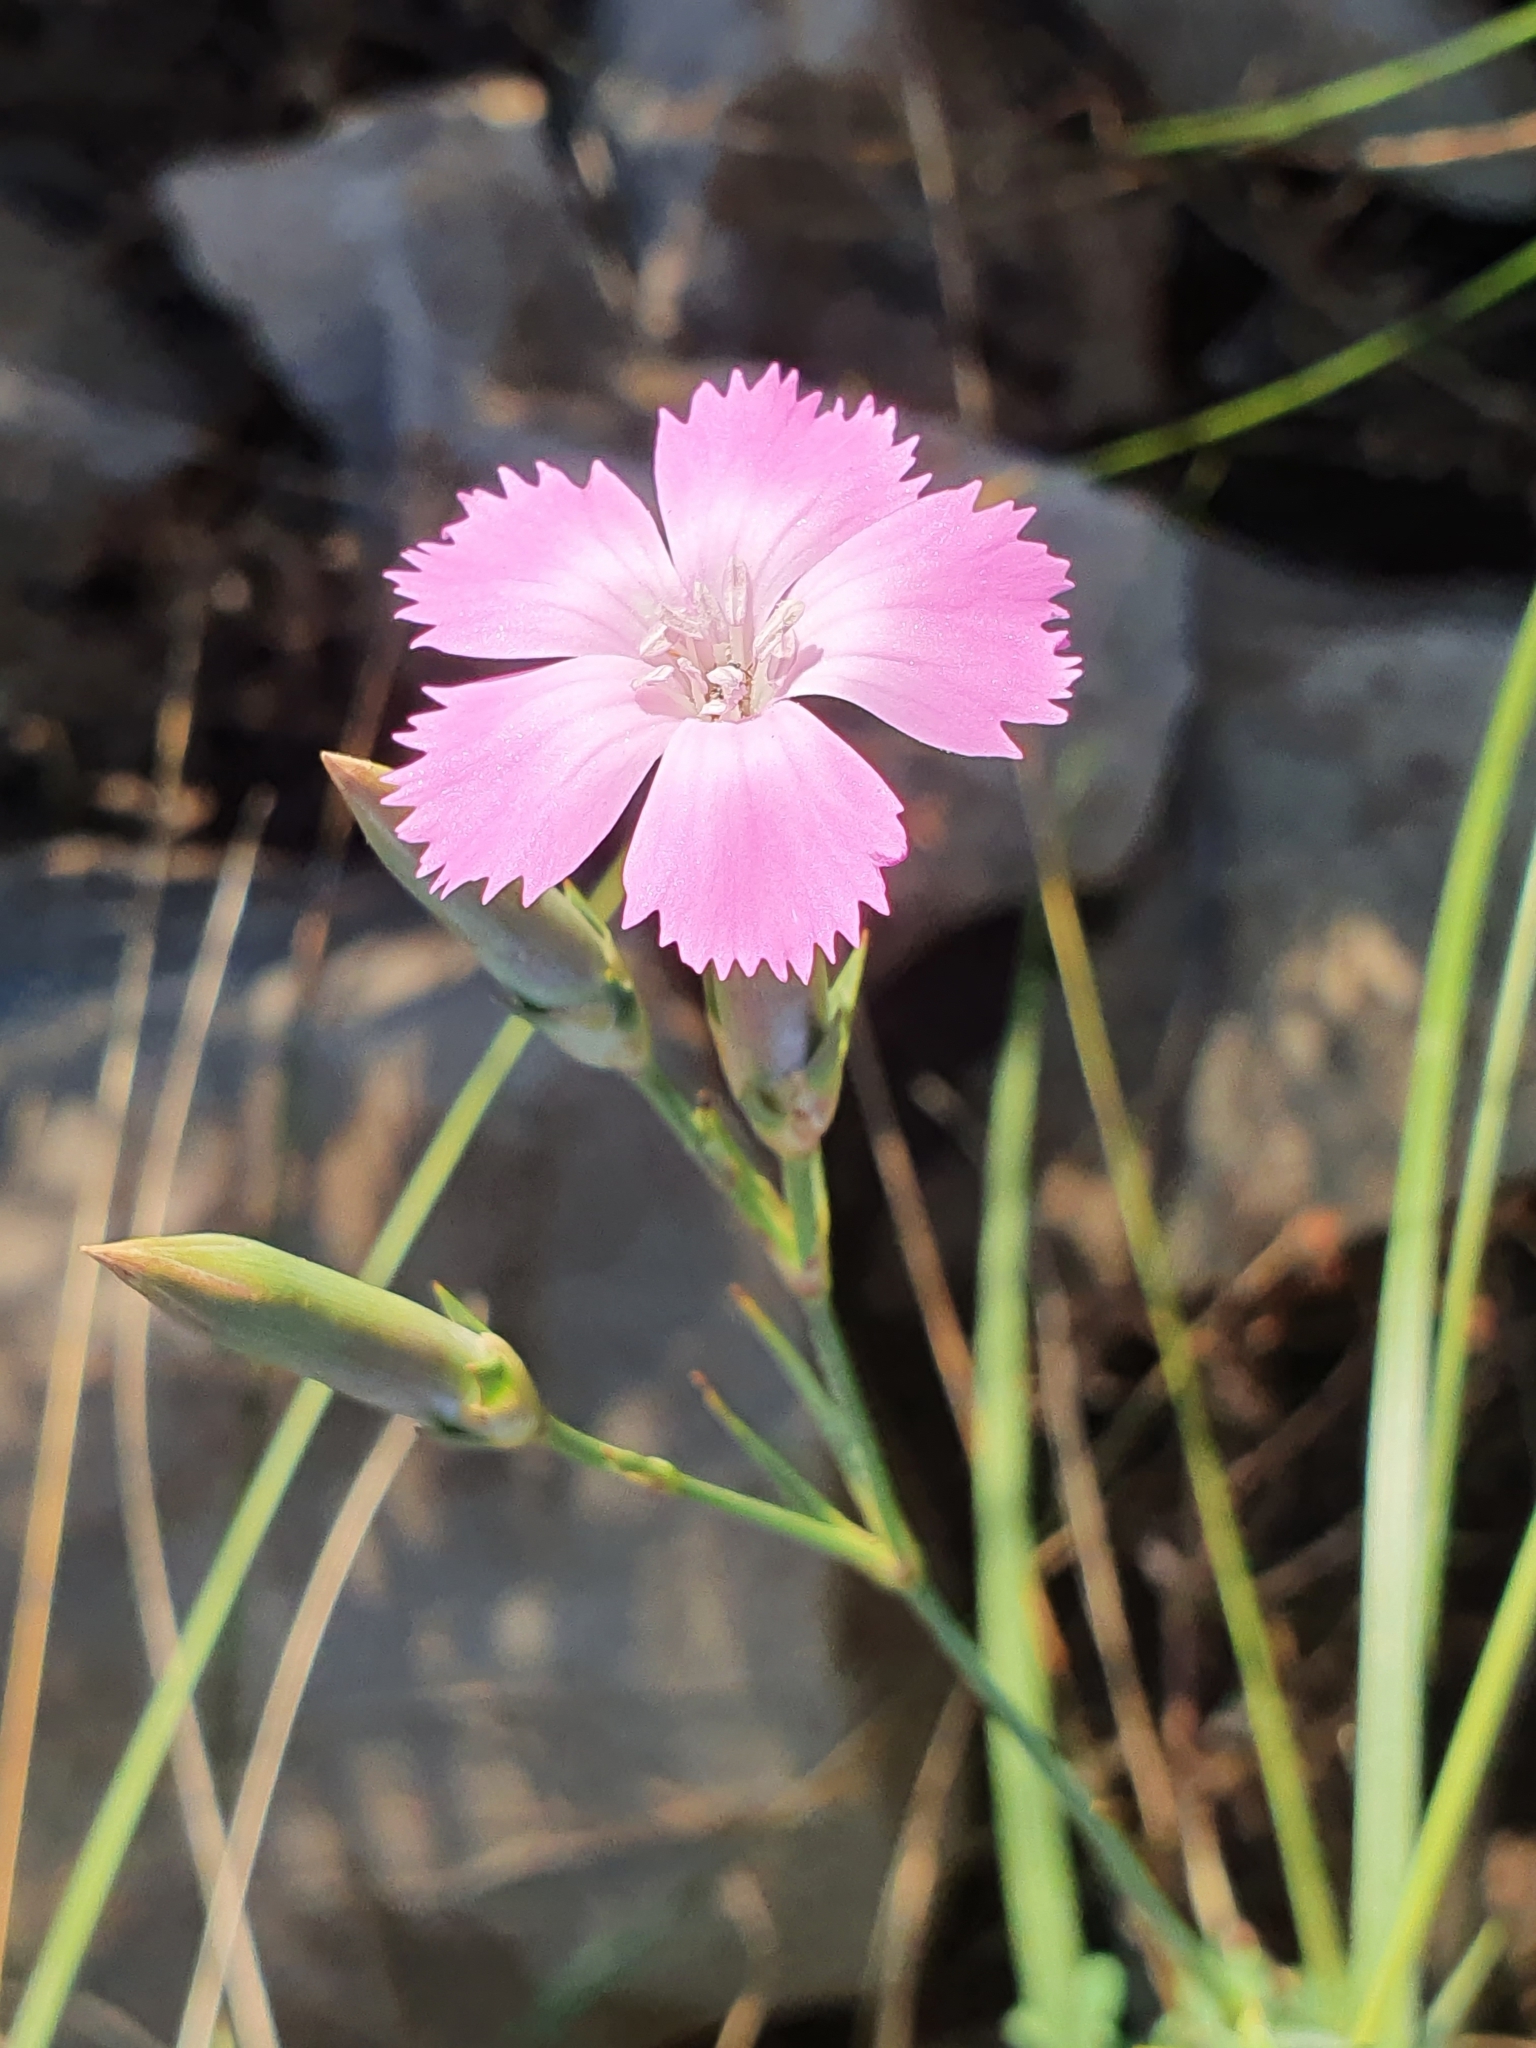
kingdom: Plantae
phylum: Tracheophyta
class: Magnoliopsida
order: Caryophyllales
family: Caryophyllaceae
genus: Dianthus
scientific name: Dianthus sylvestris
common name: Wood pink
